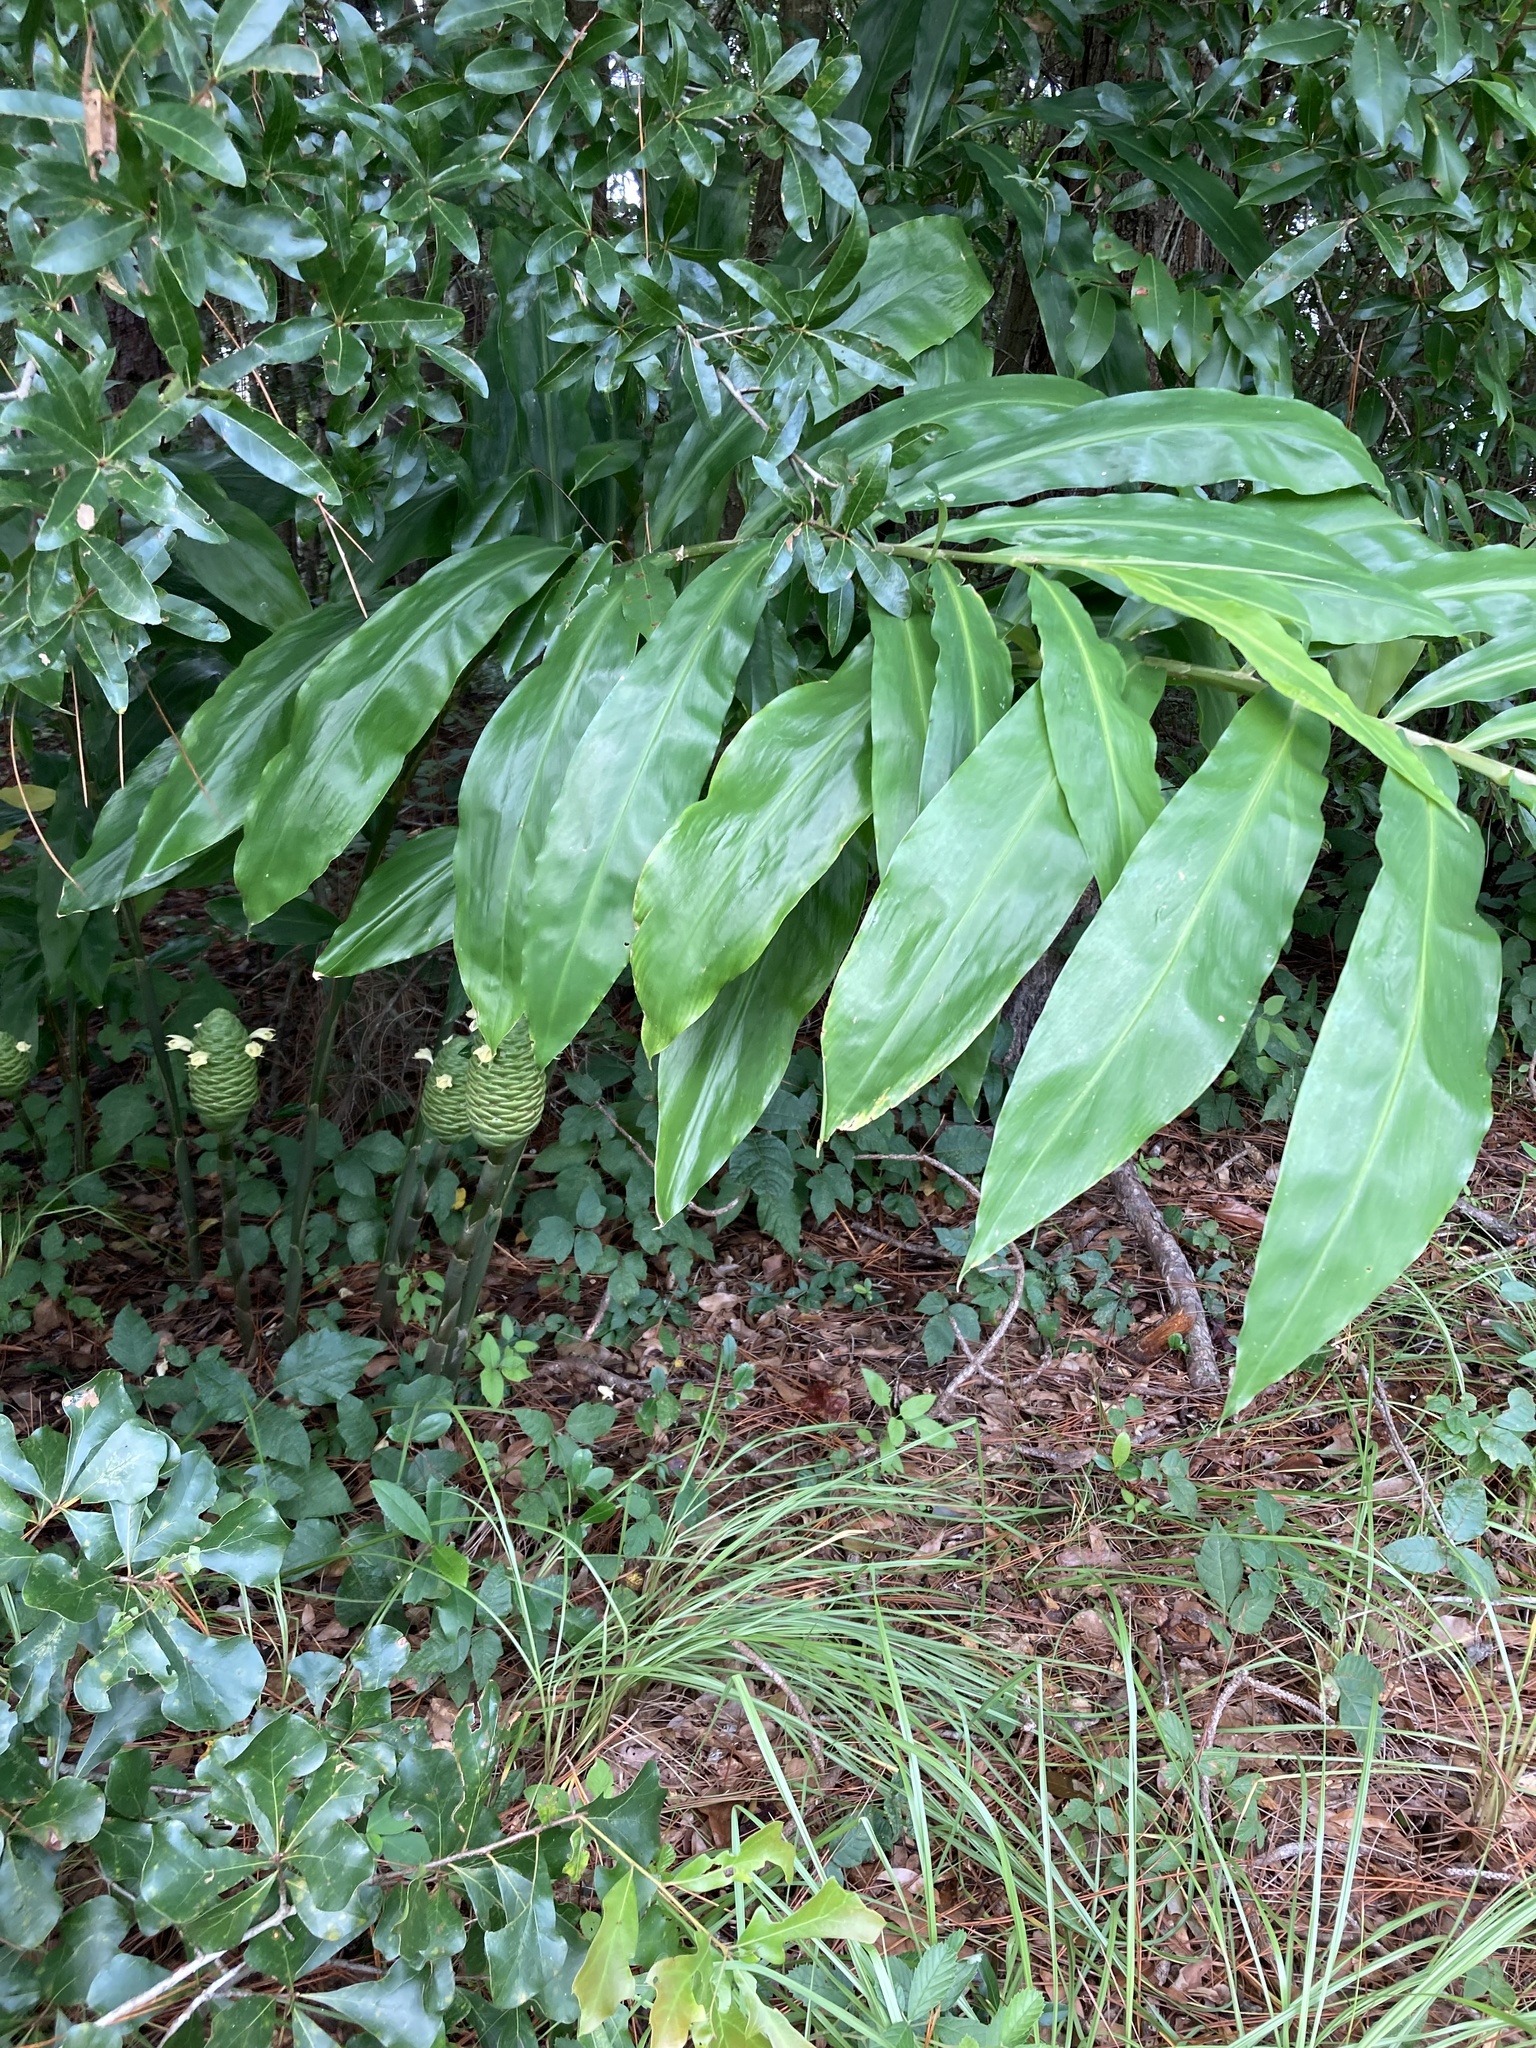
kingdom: Plantae
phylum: Tracheophyta
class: Liliopsida
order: Zingiberales
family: Zingiberaceae
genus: Zingiber
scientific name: Zingiber zerumbet
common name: Bitter ginger
